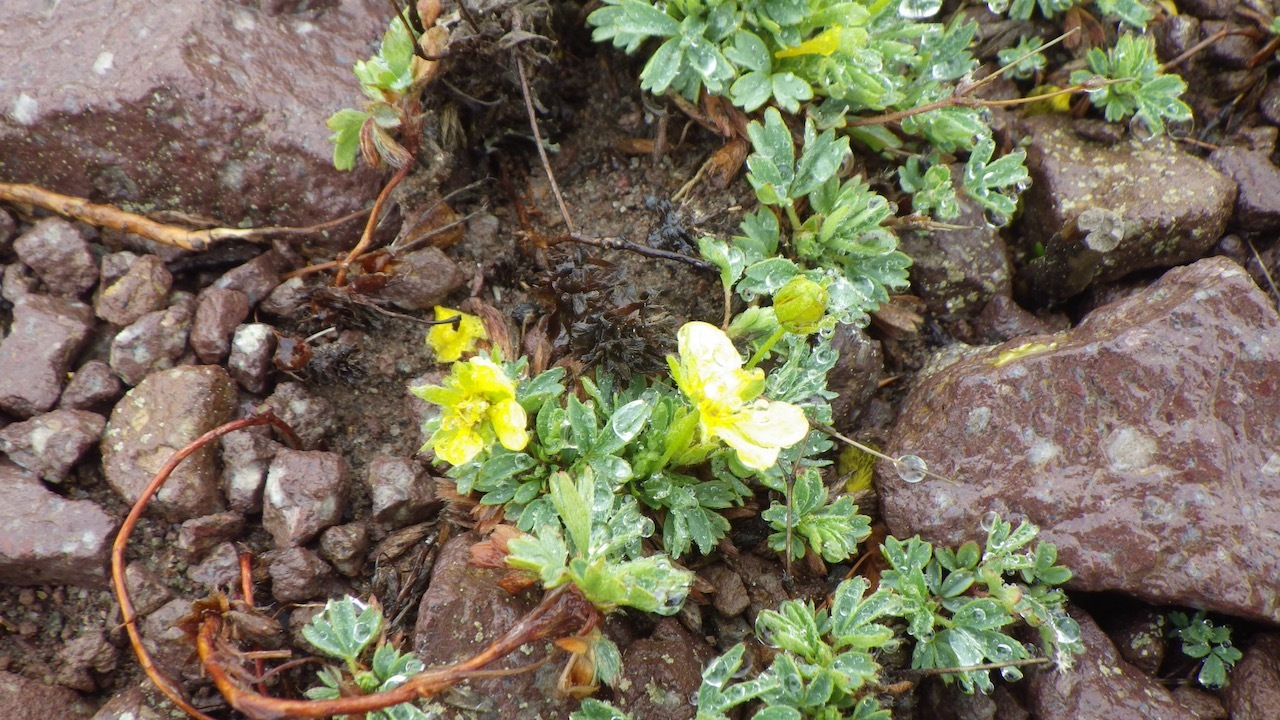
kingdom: Plantae
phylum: Tracheophyta
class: Magnoliopsida
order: Rosales
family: Rosaceae
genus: Sibbaldia
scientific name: Sibbaldia miyabei
